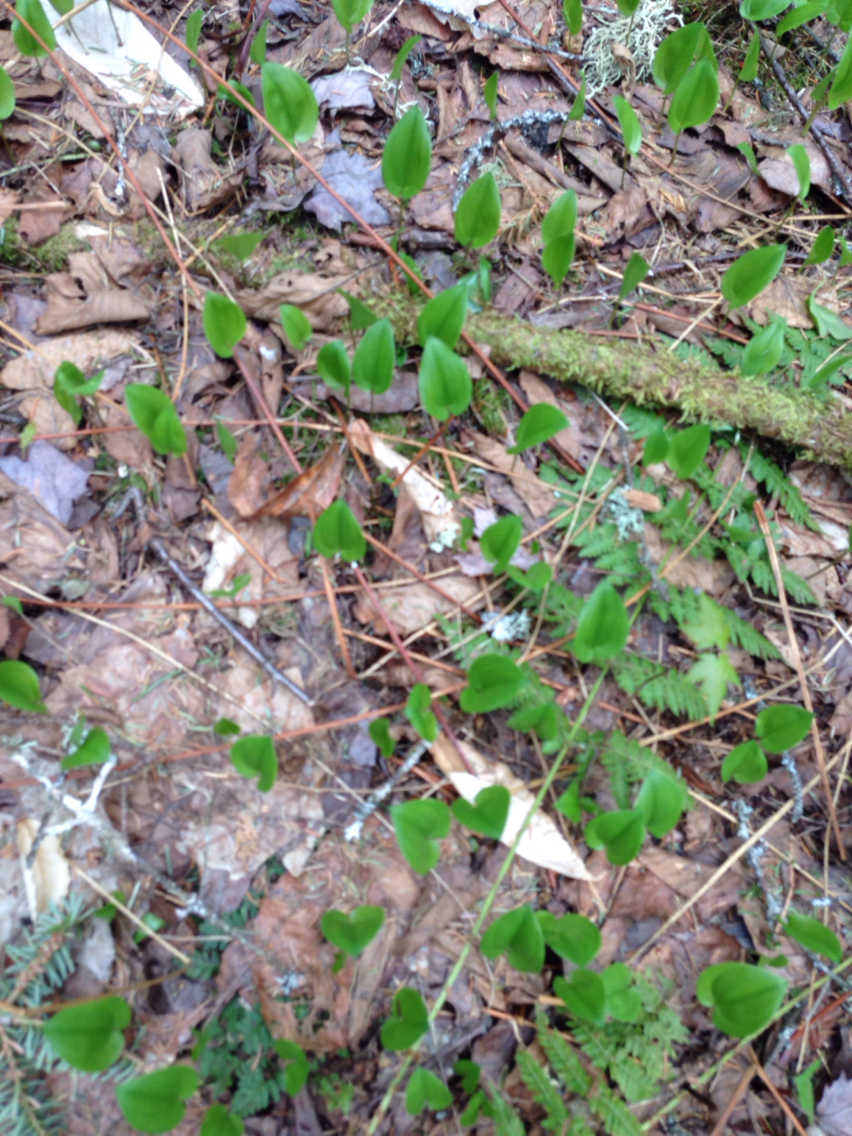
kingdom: Plantae
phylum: Tracheophyta
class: Liliopsida
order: Asparagales
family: Asparagaceae
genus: Maianthemum
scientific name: Maianthemum canadense
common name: False lily-of-the-valley
